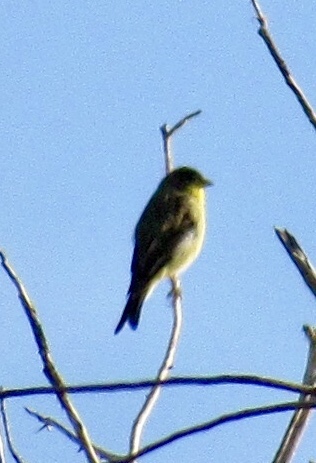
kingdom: Animalia
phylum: Chordata
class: Aves
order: Passeriformes
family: Fringillidae
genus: Spinus
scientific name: Spinus psaltria
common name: Lesser goldfinch
